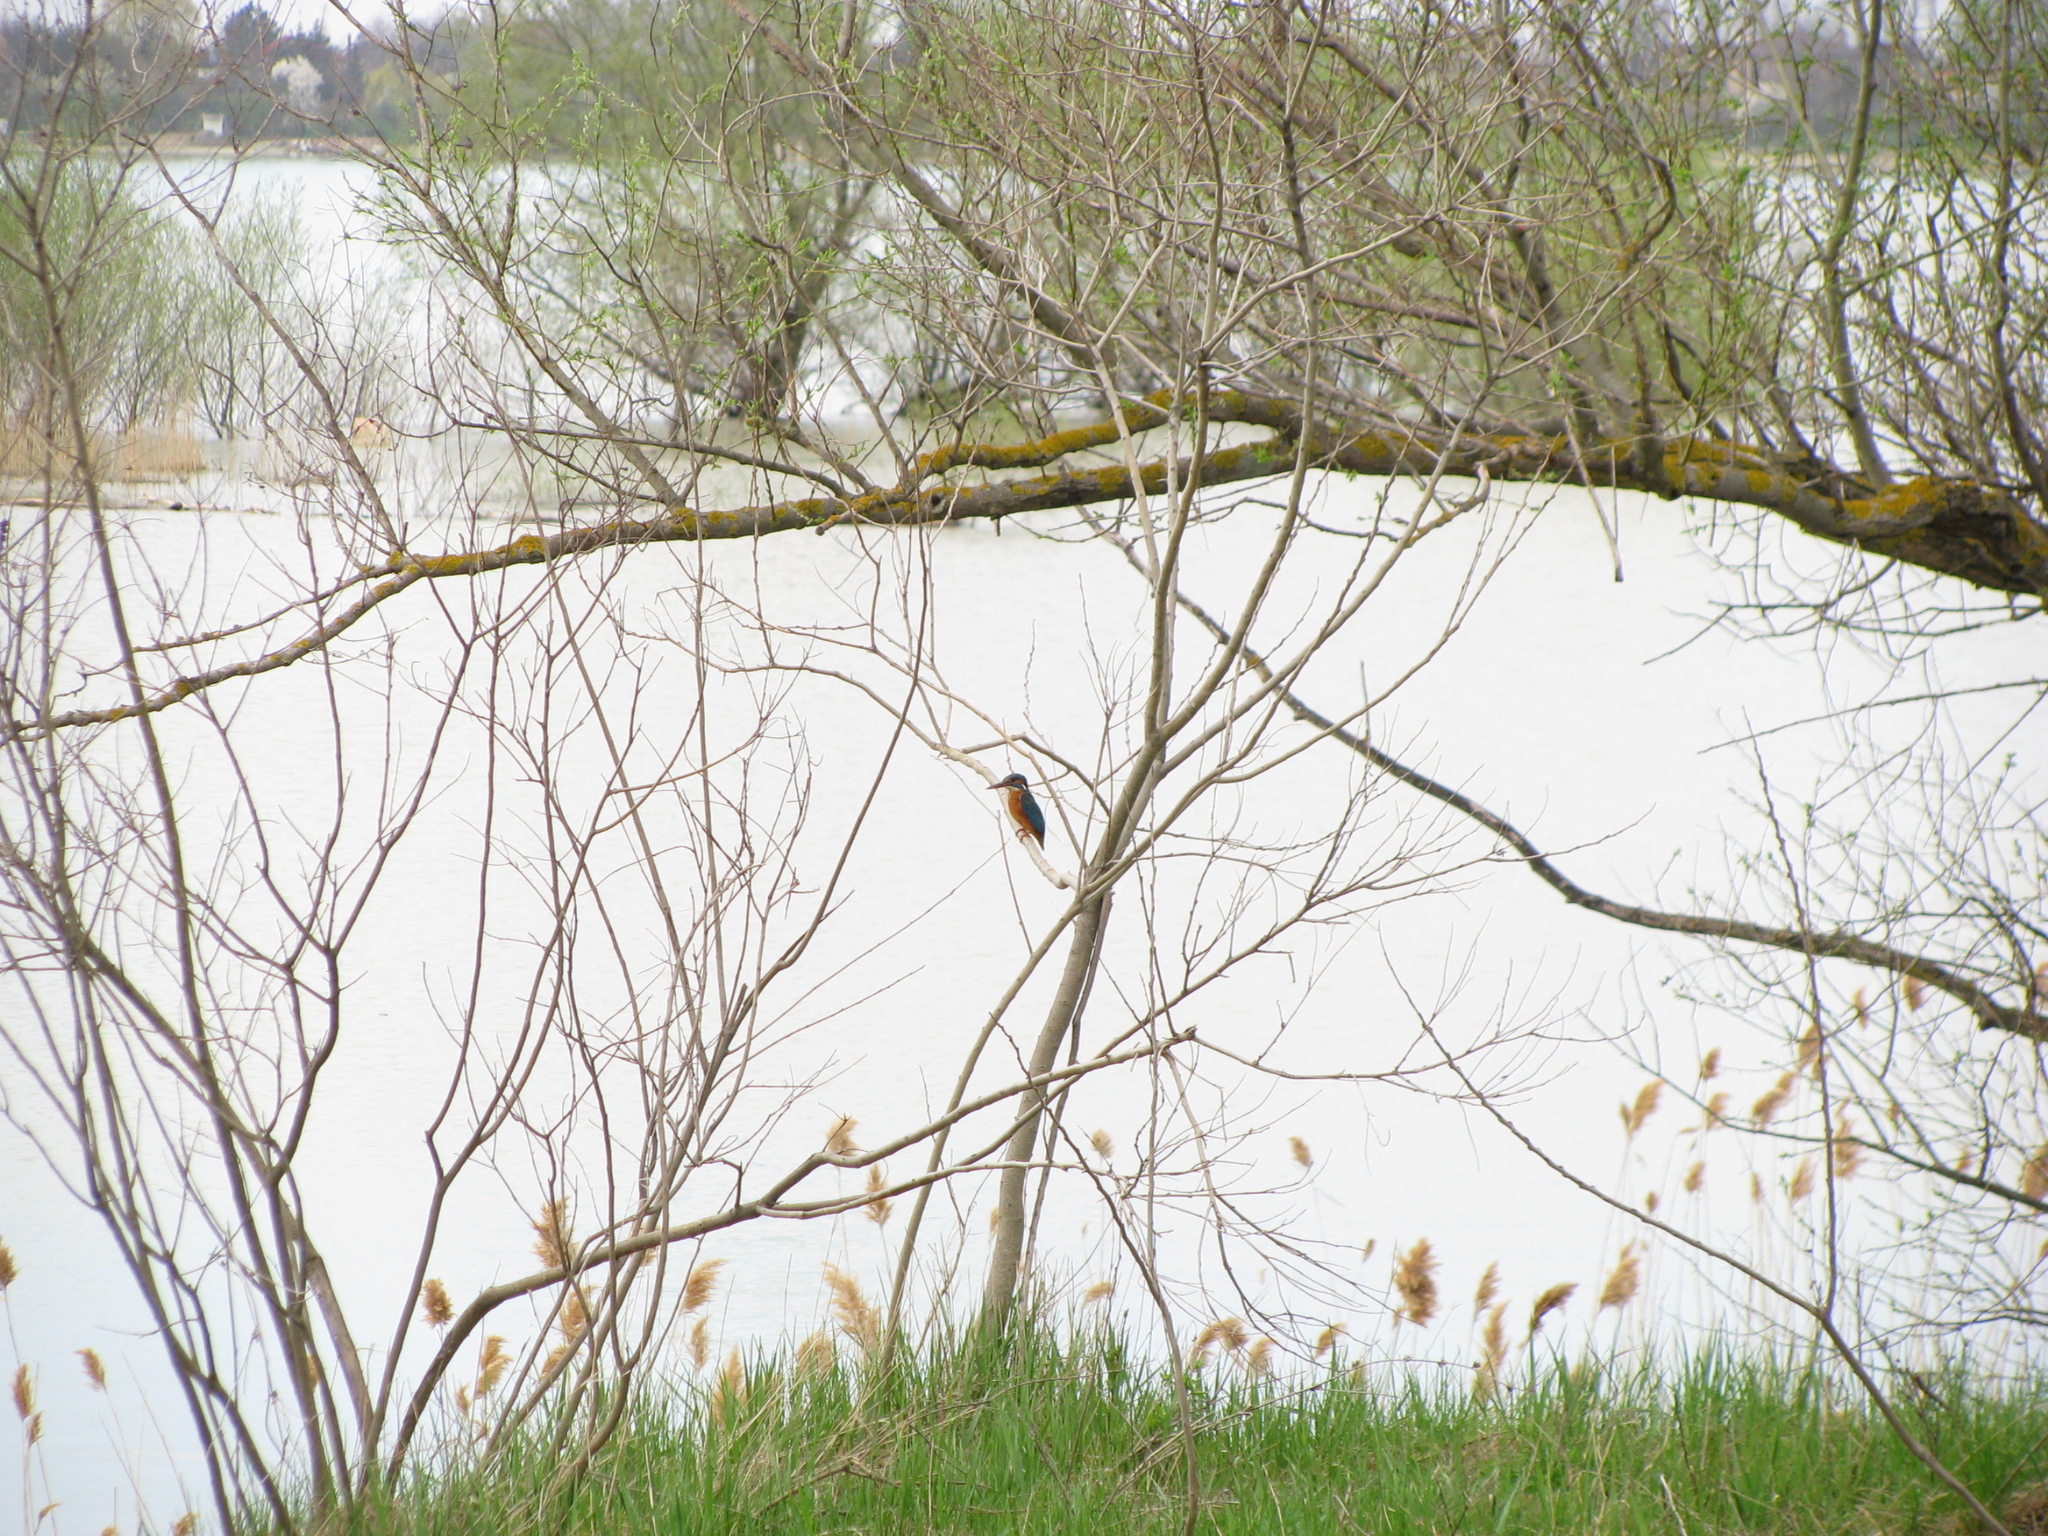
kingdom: Animalia
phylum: Chordata
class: Aves
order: Coraciiformes
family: Alcedinidae
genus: Alcedo
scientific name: Alcedo atthis
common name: Common kingfisher
